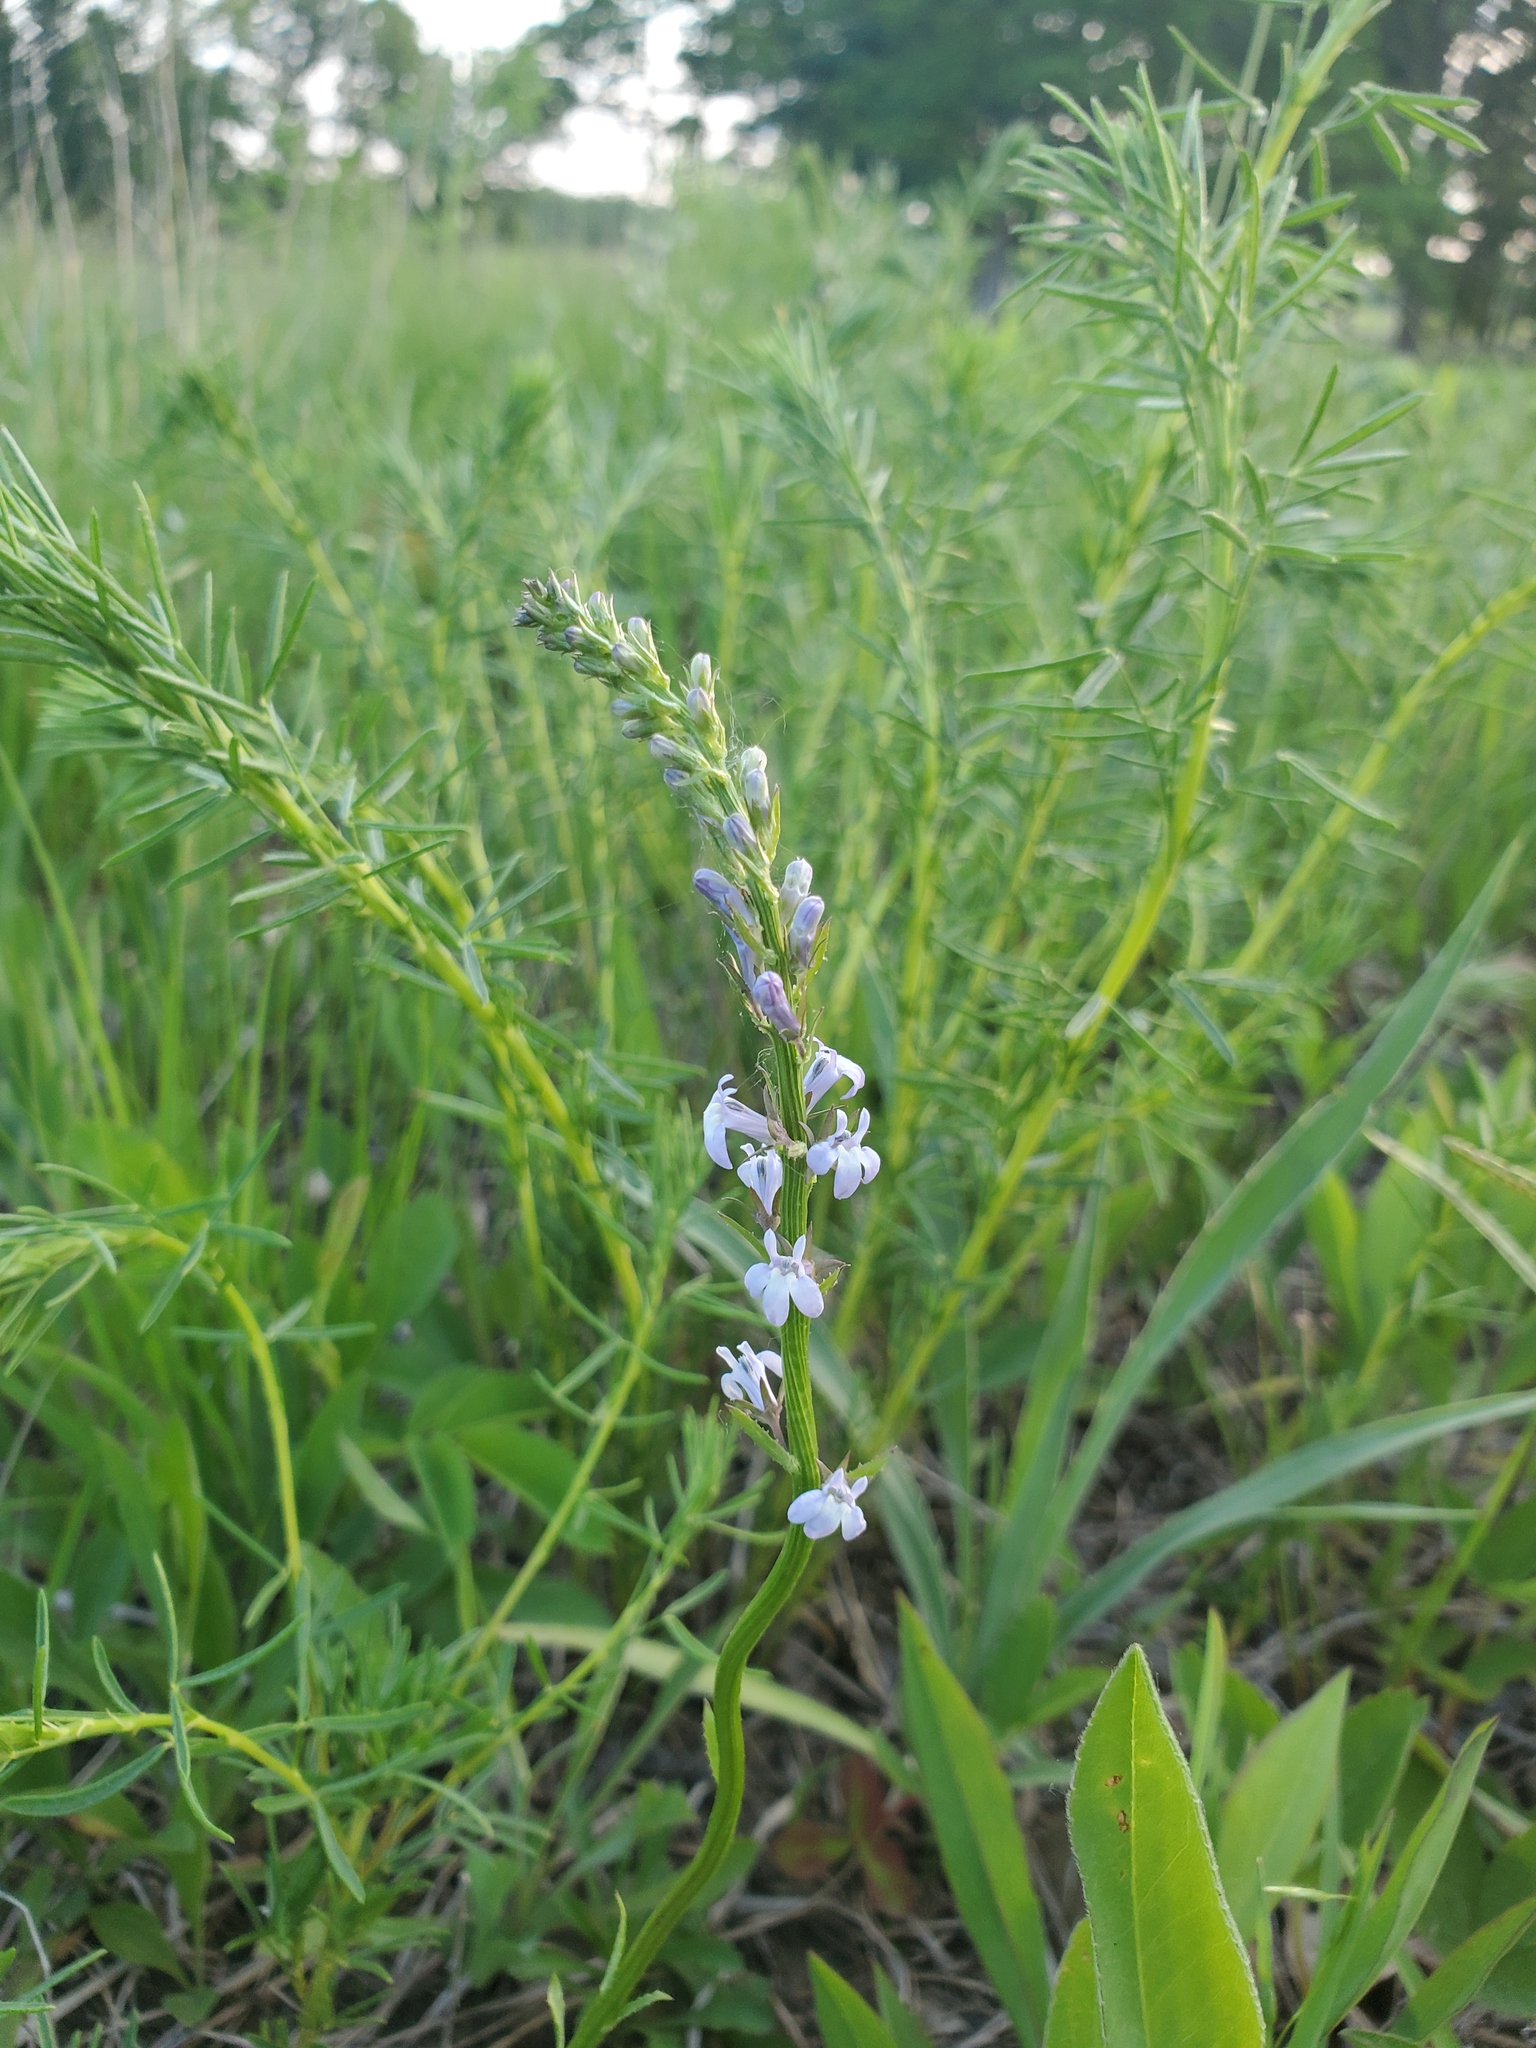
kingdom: Plantae
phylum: Tracheophyta
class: Magnoliopsida
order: Asterales
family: Campanulaceae
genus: Lobelia
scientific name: Lobelia spicata
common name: Pale-spike lobelia
